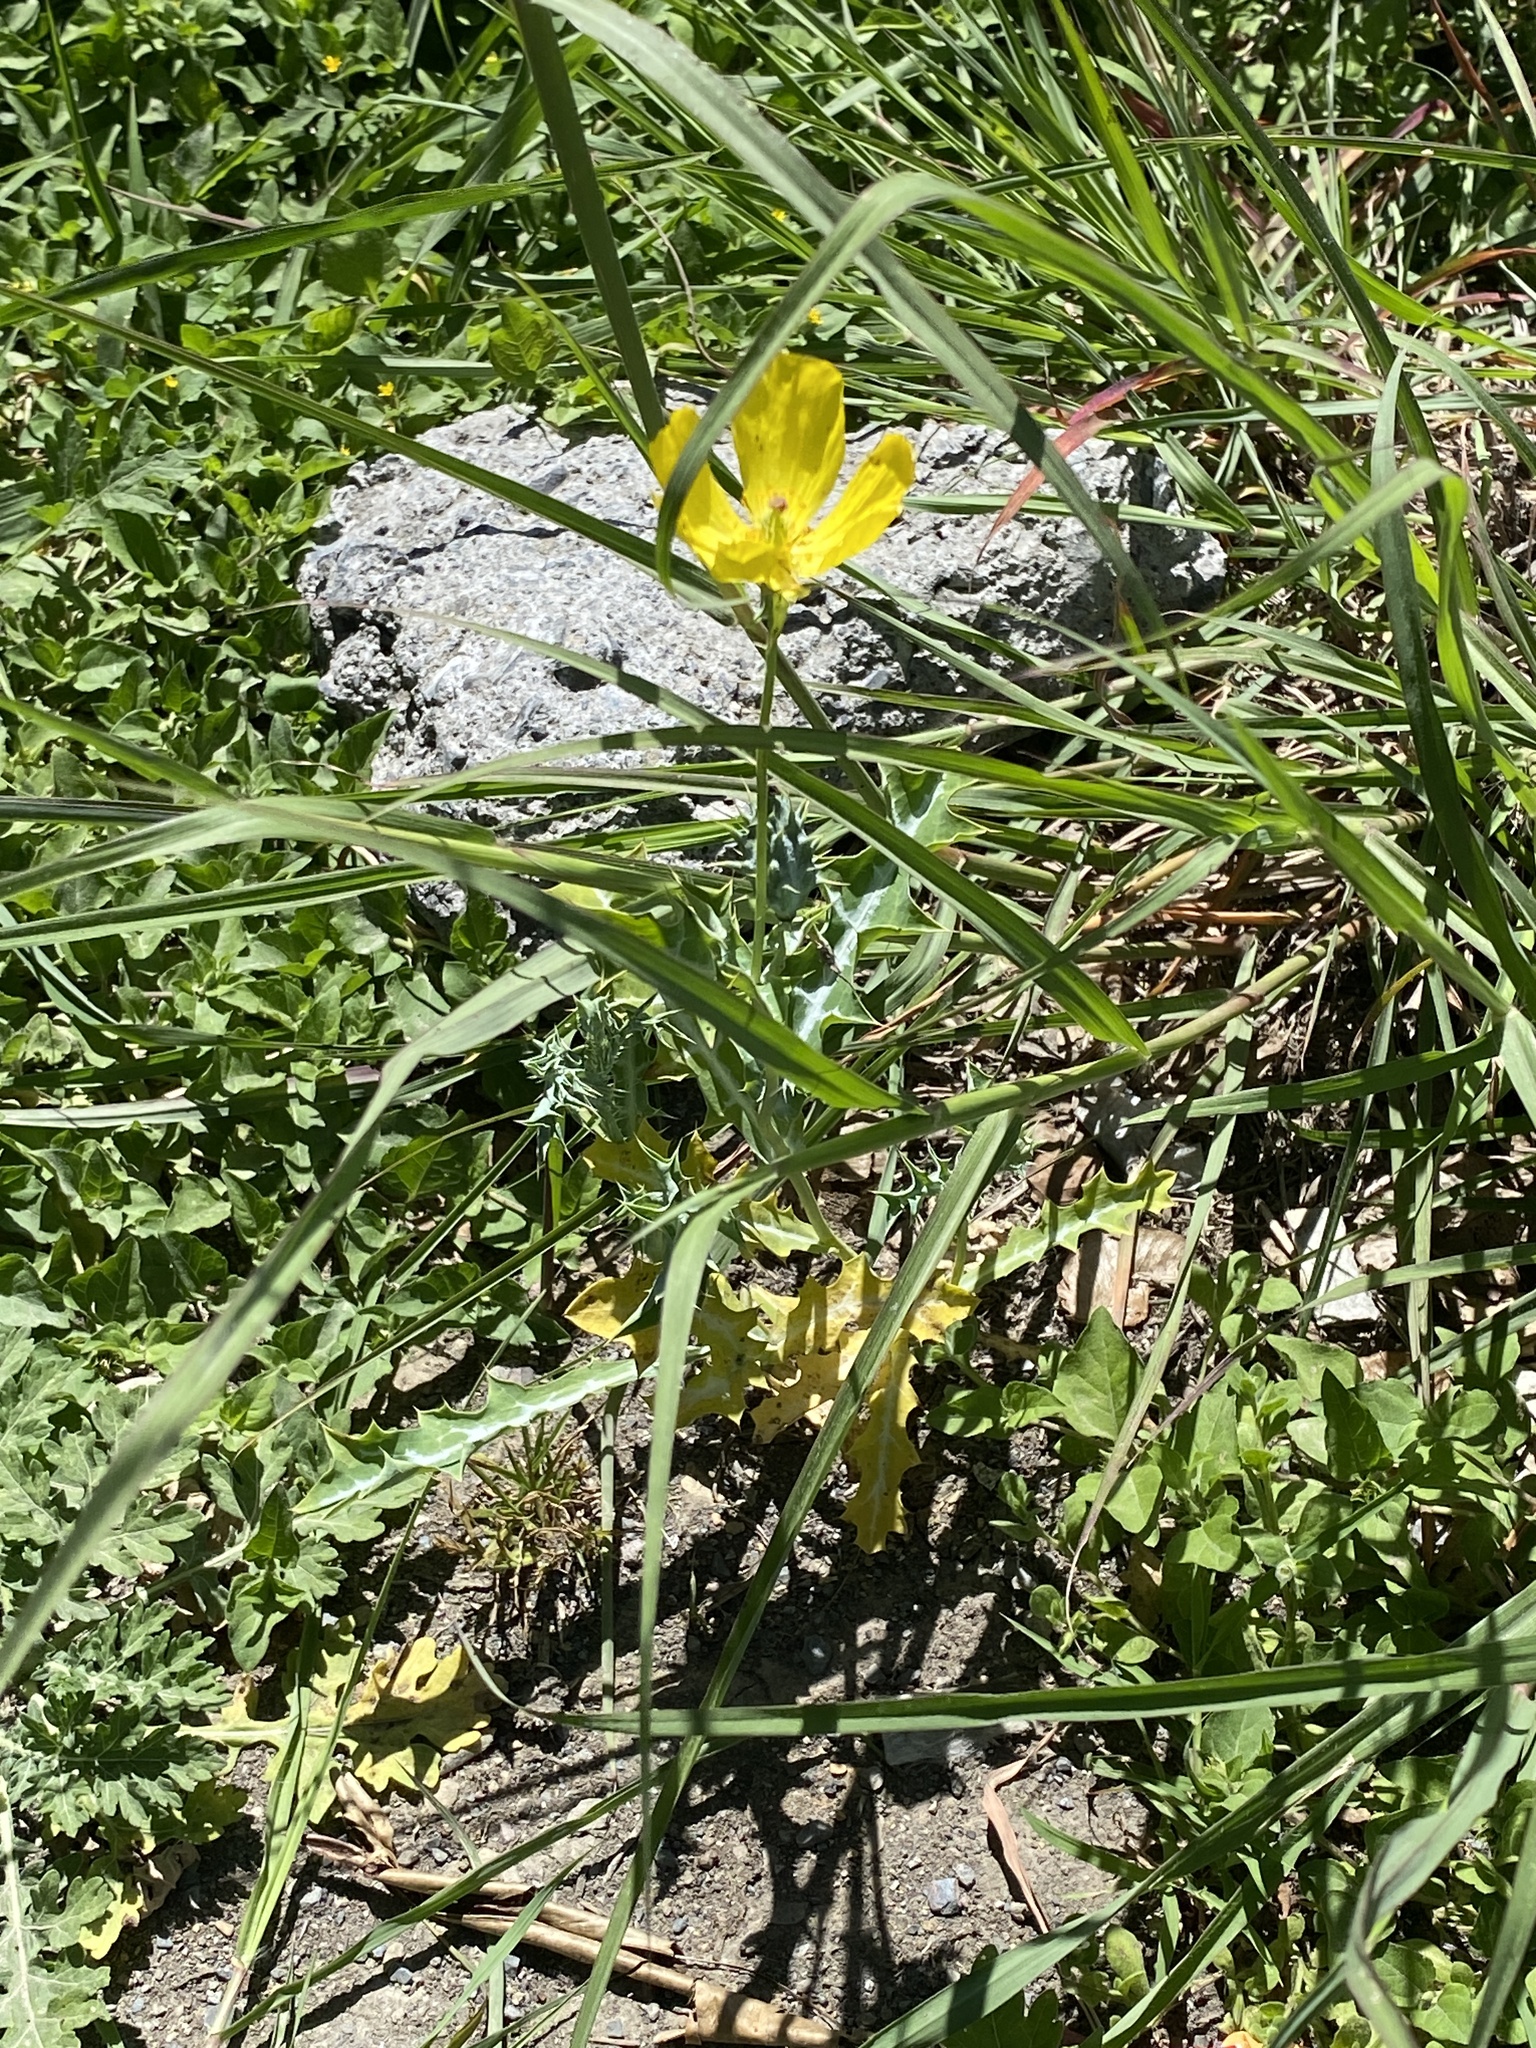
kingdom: Plantae
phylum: Tracheophyta
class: Magnoliopsida
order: Ranunculales
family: Papaveraceae
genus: Argemone
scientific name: Argemone mexicana
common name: Mexican poppy
